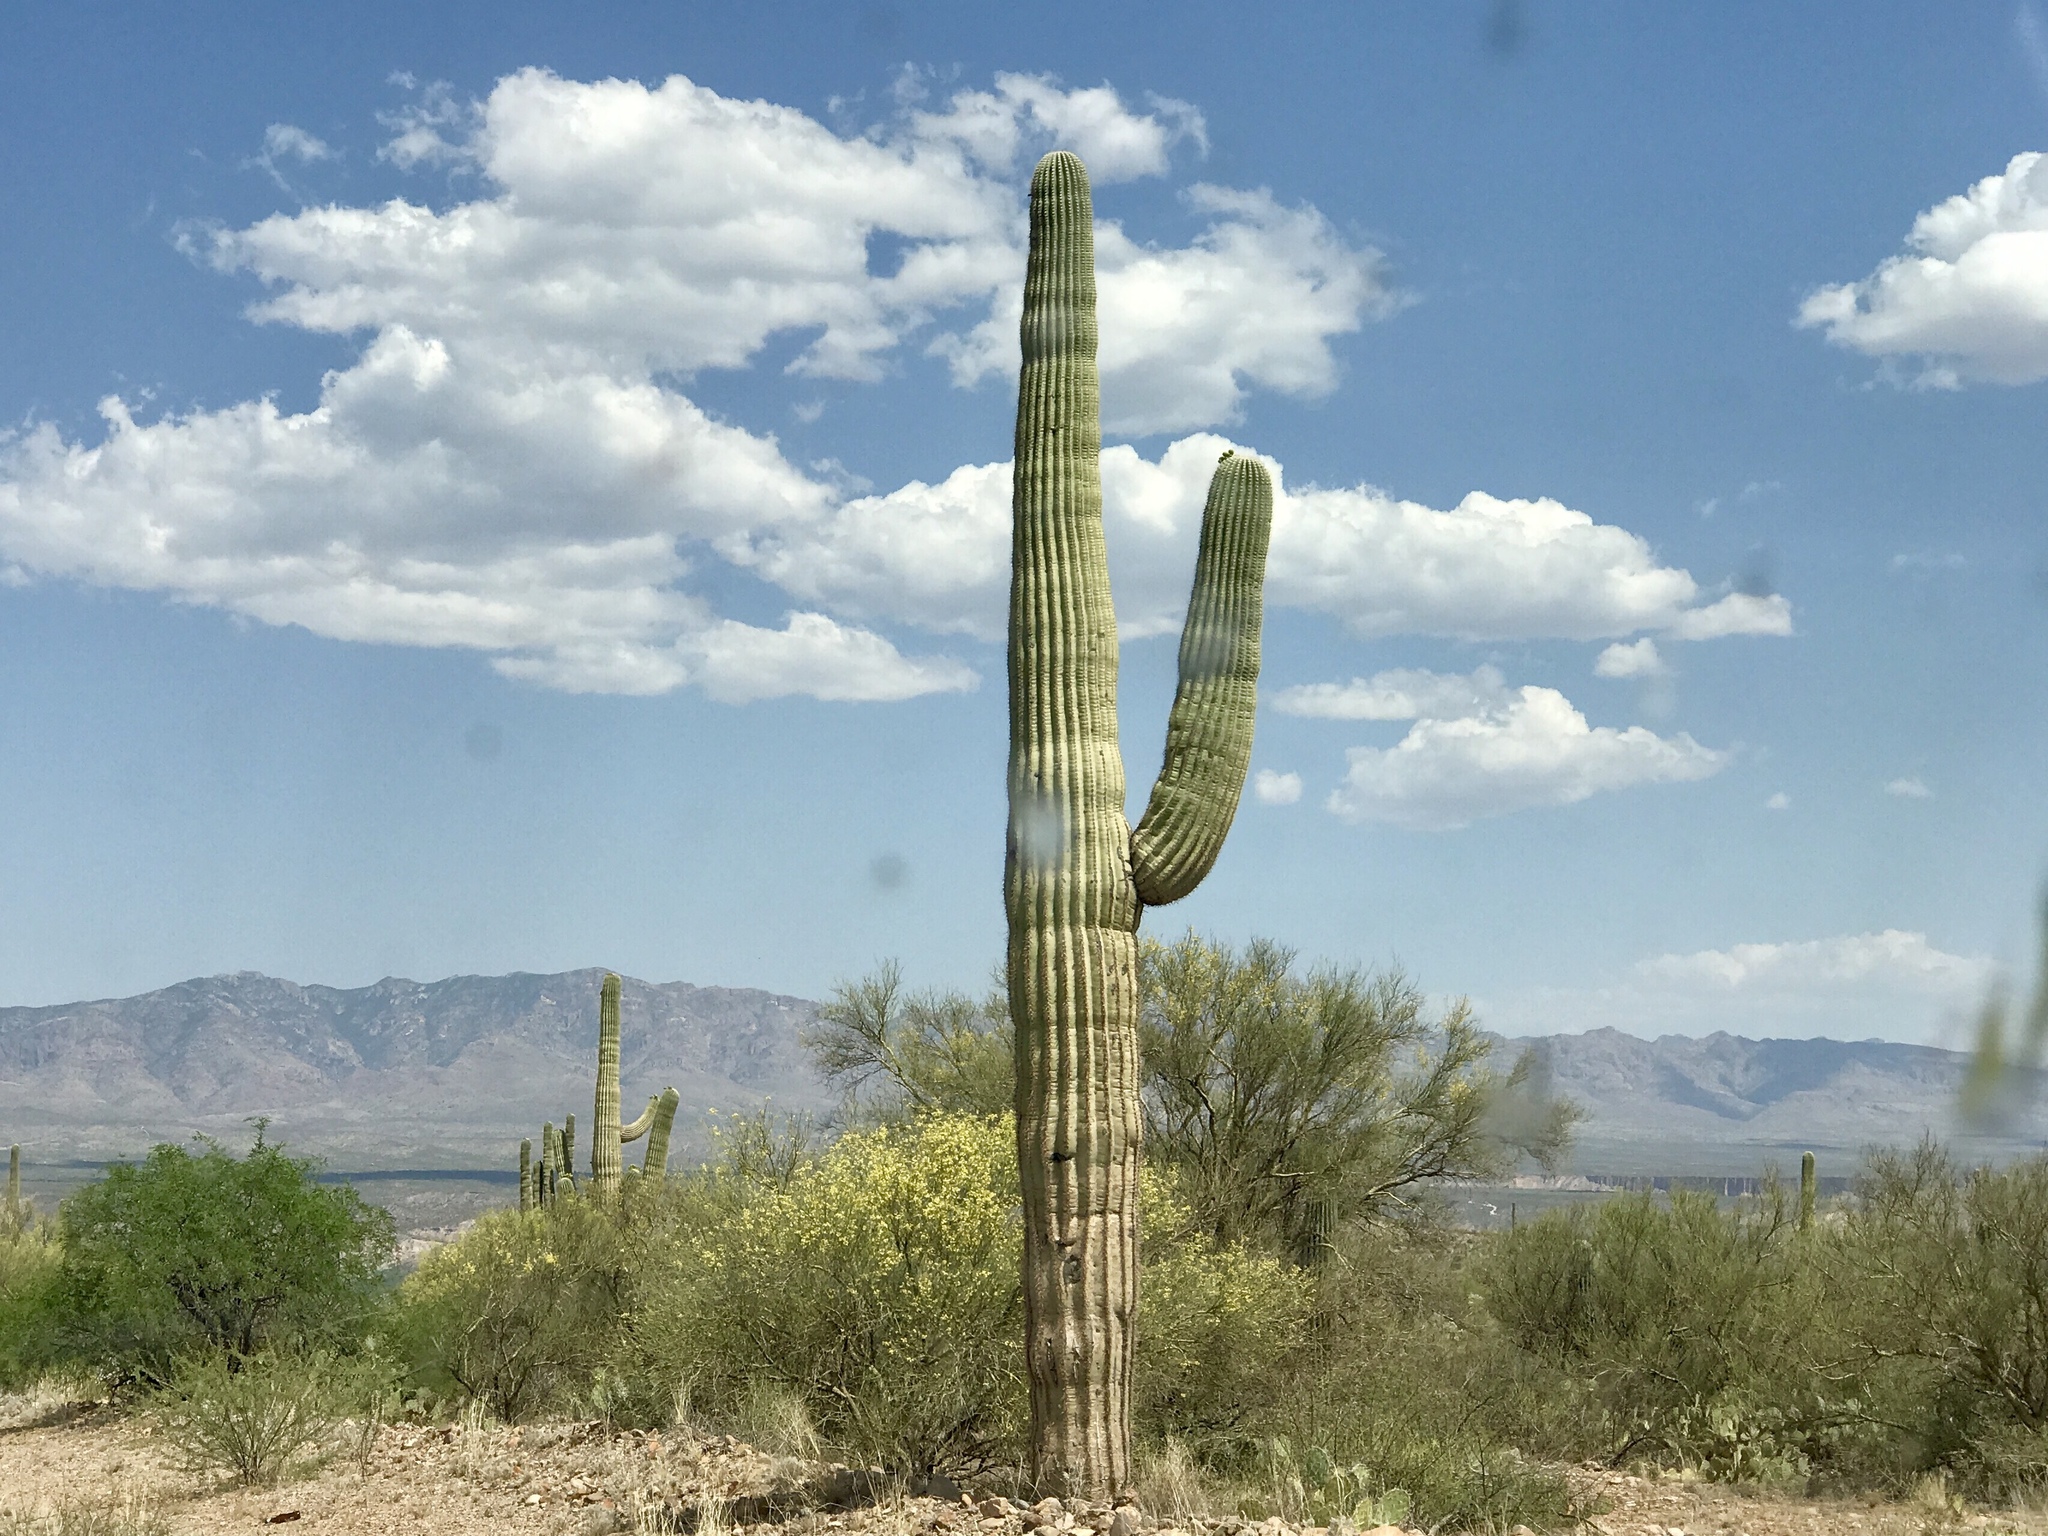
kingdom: Plantae
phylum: Tracheophyta
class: Magnoliopsida
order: Caryophyllales
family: Cactaceae
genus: Carnegiea
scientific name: Carnegiea gigantea
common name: Saguaro
